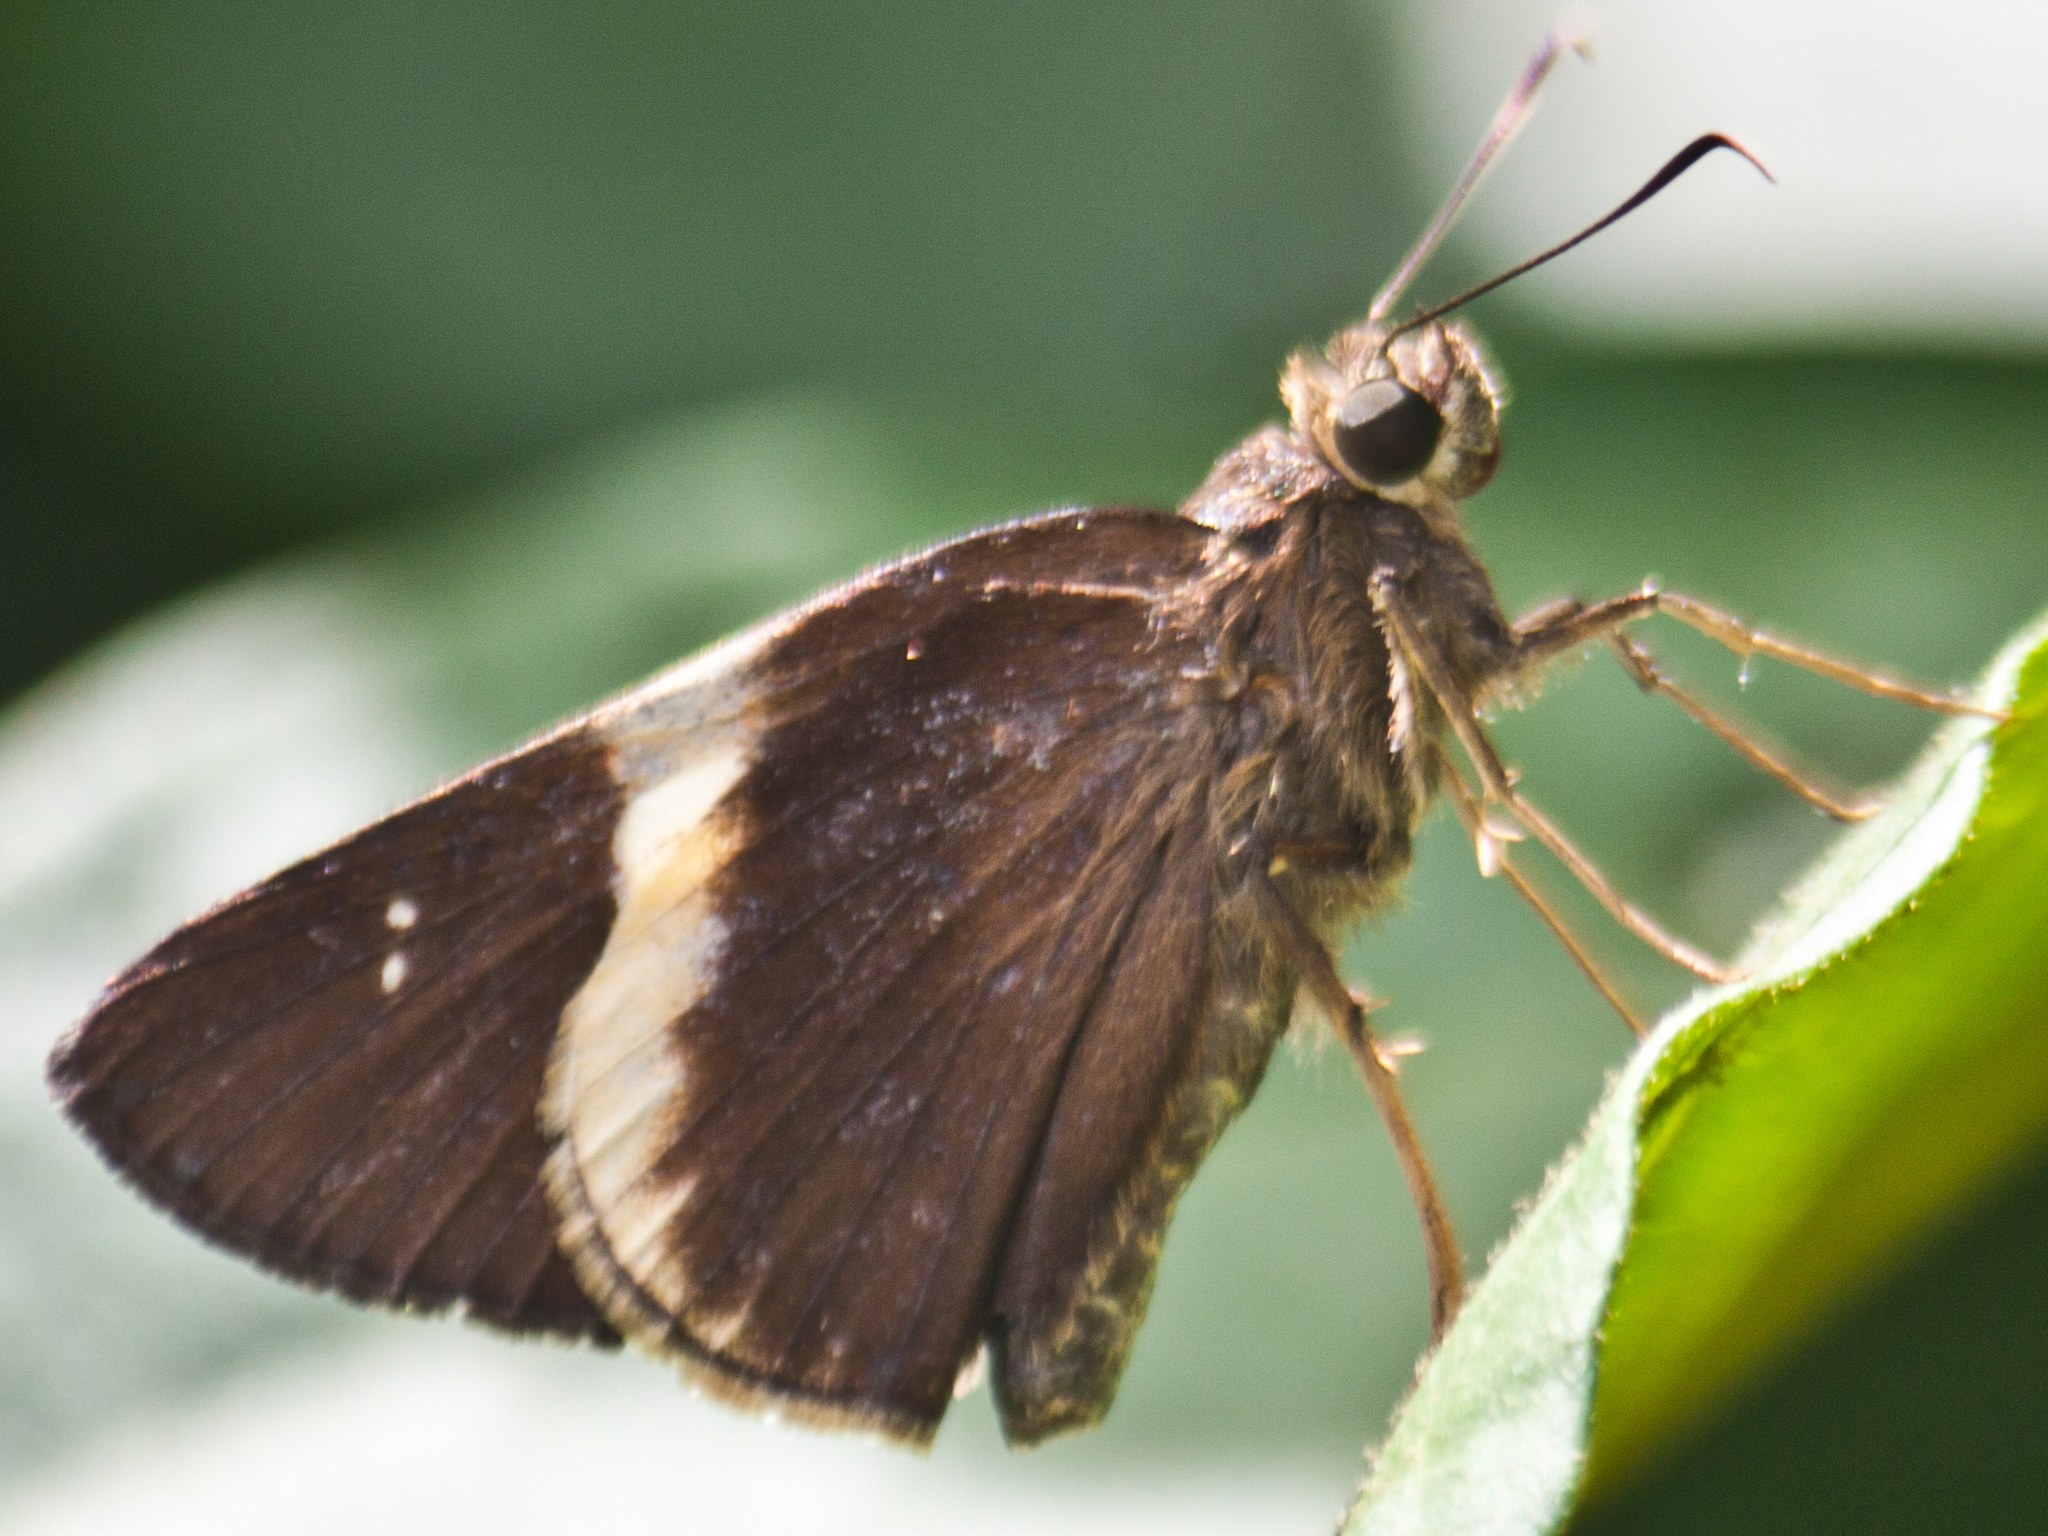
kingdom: Animalia
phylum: Arthropoda
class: Insecta
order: Lepidoptera
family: Hesperiidae
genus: Lotongus
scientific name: Lotongus calathus
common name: White-tipped palmer
